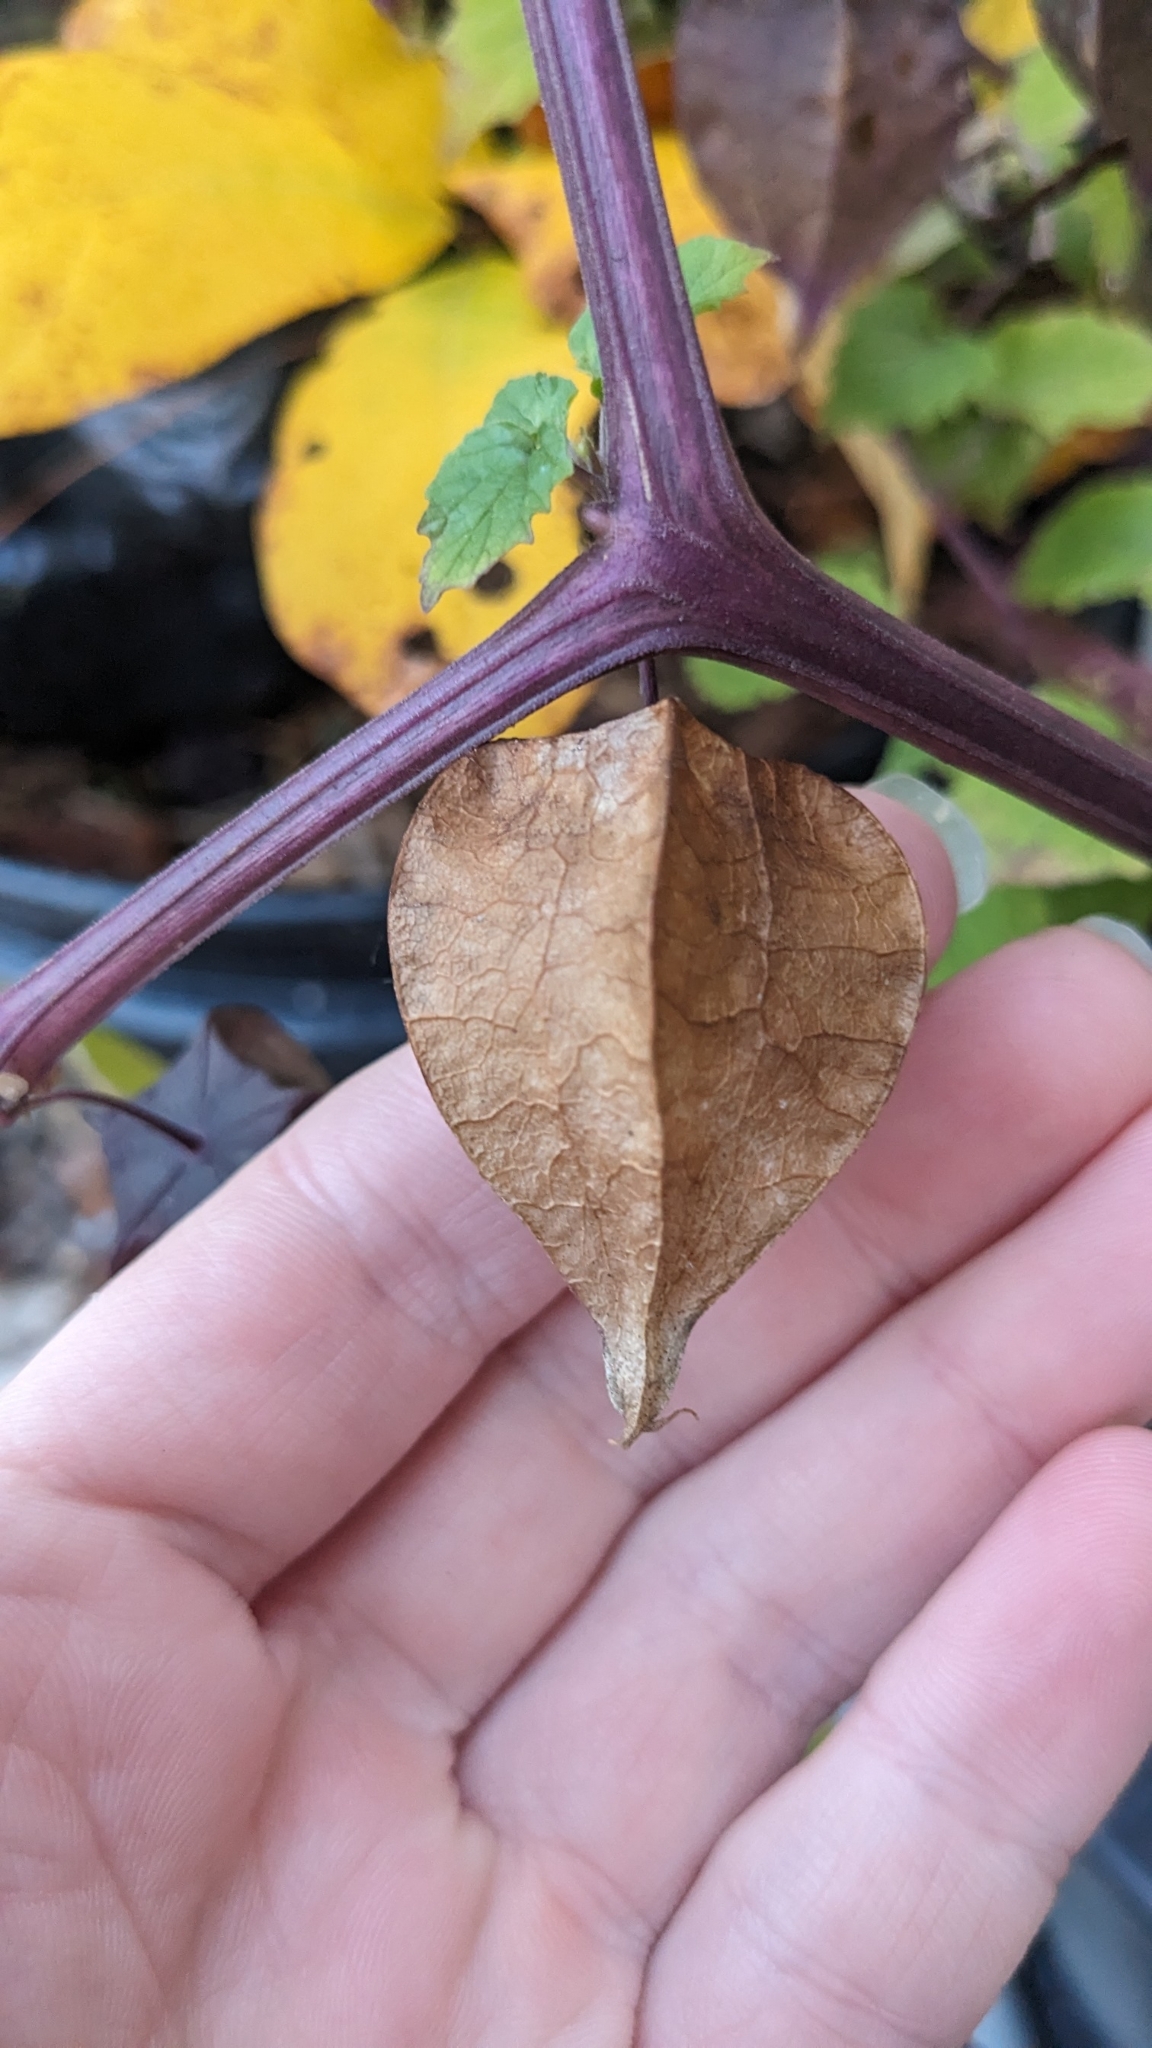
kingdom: Plantae
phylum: Tracheophyta
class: Magnoliopsida
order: Solanales
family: Solanaceae
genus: Physalis
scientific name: Physalis cordata
